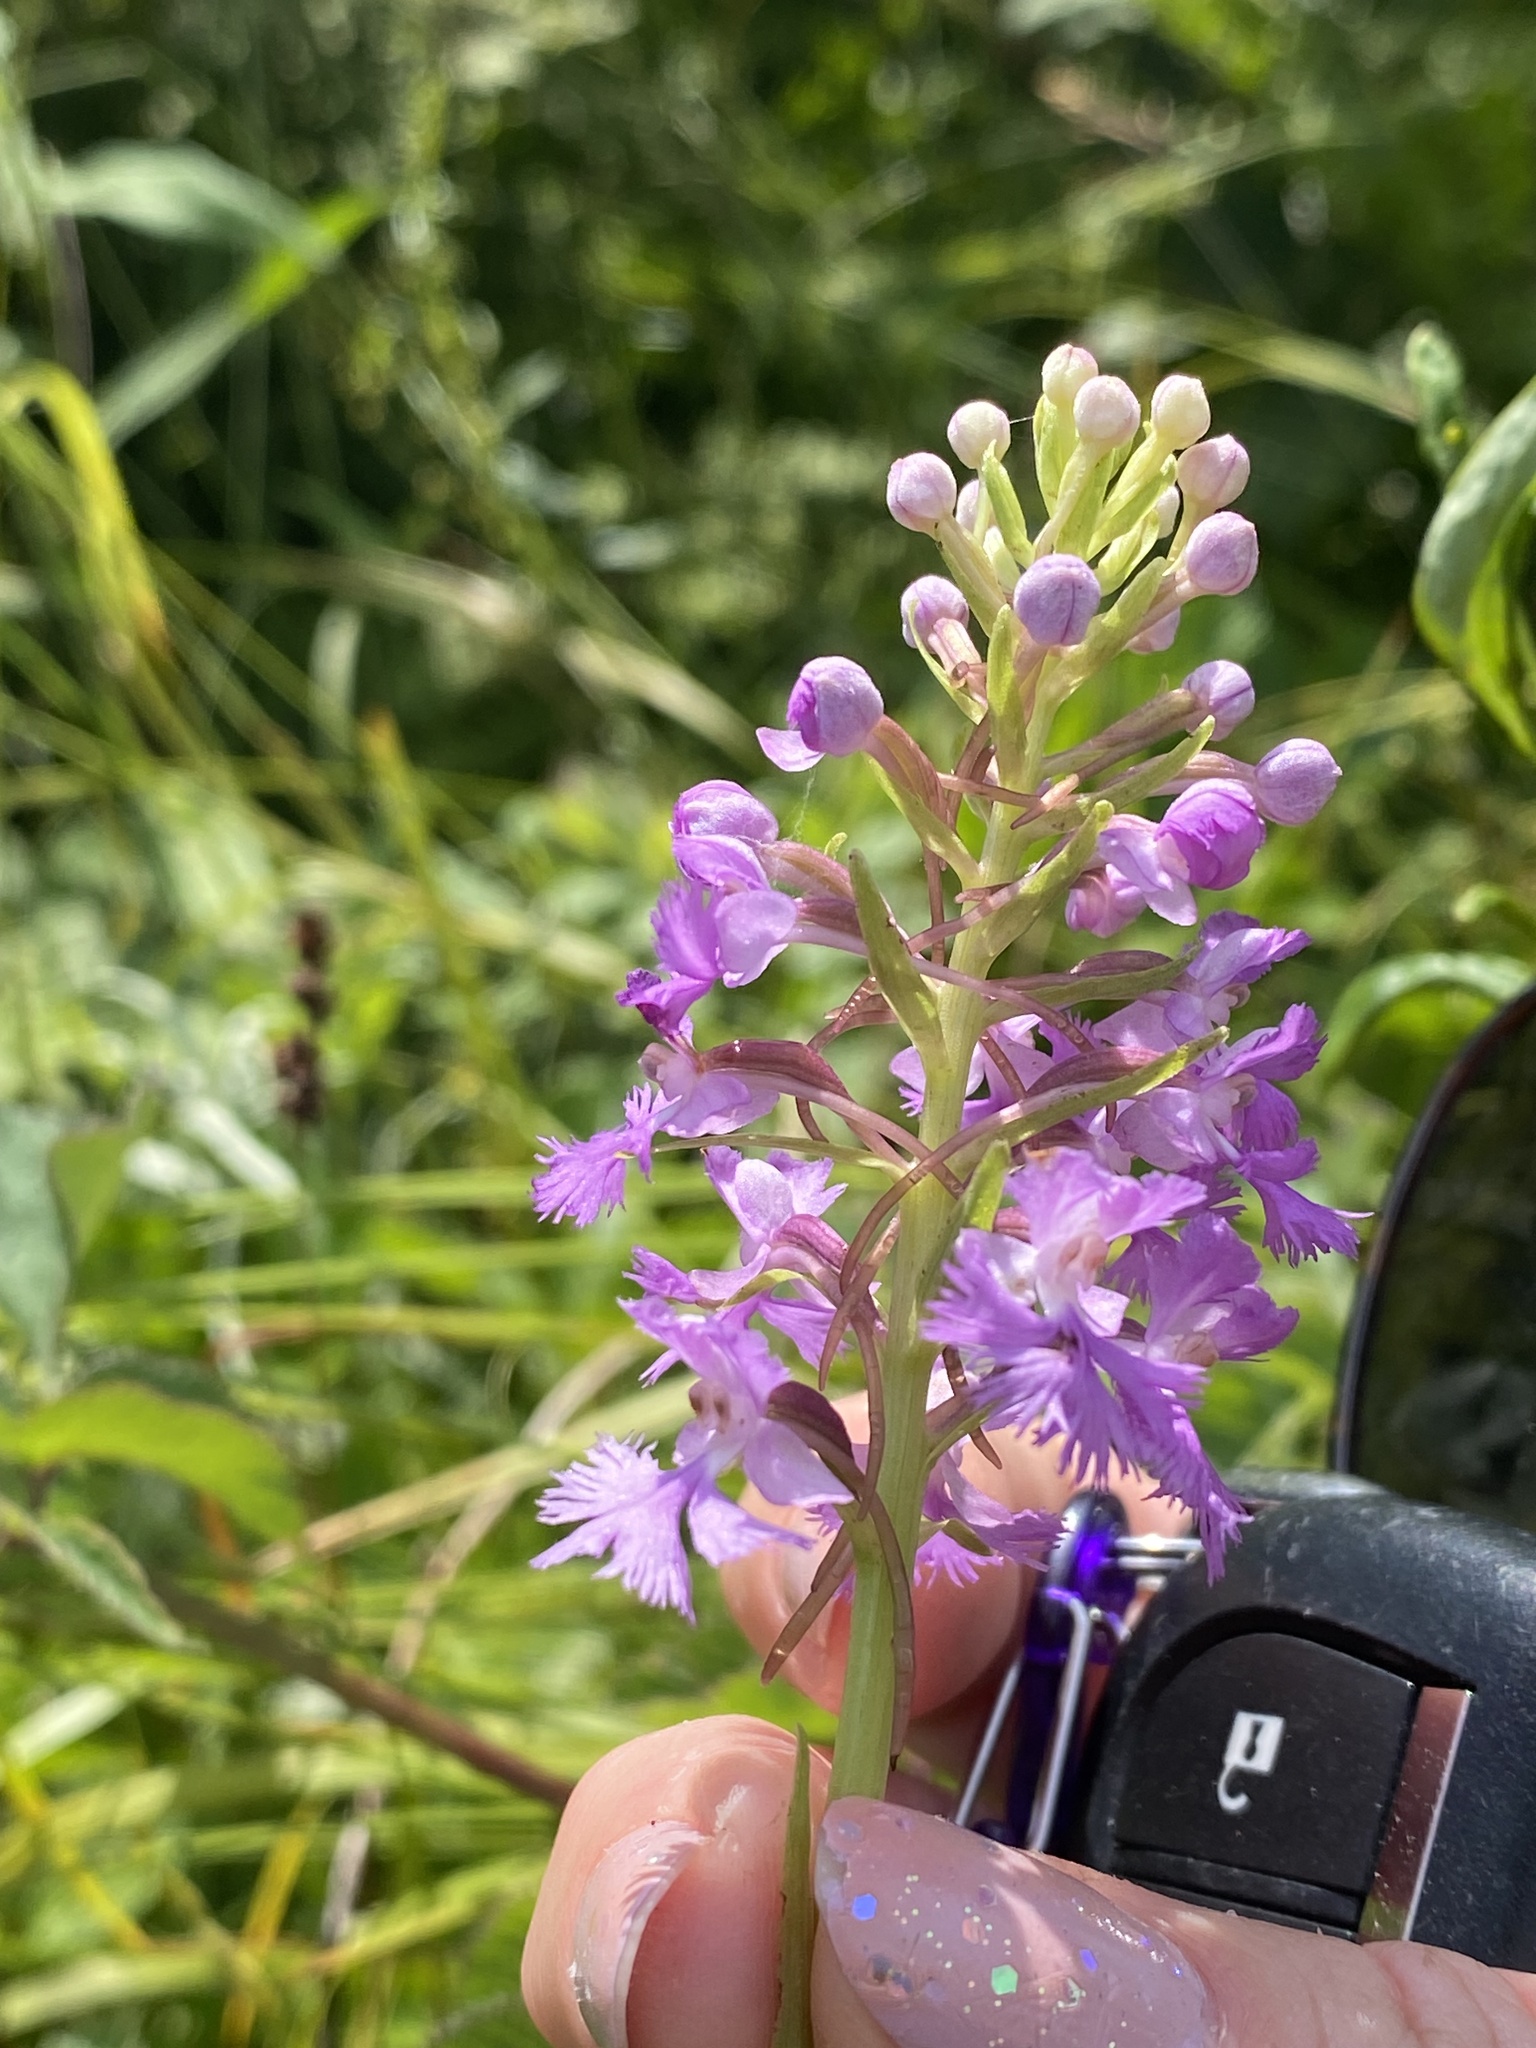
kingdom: Plantae
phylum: Tracheophyta
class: Liliopsida
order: Asparagales
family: Orchidaceae
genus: Platanthera
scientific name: Platanthera psycodes
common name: Lesser purple fringed orchid
